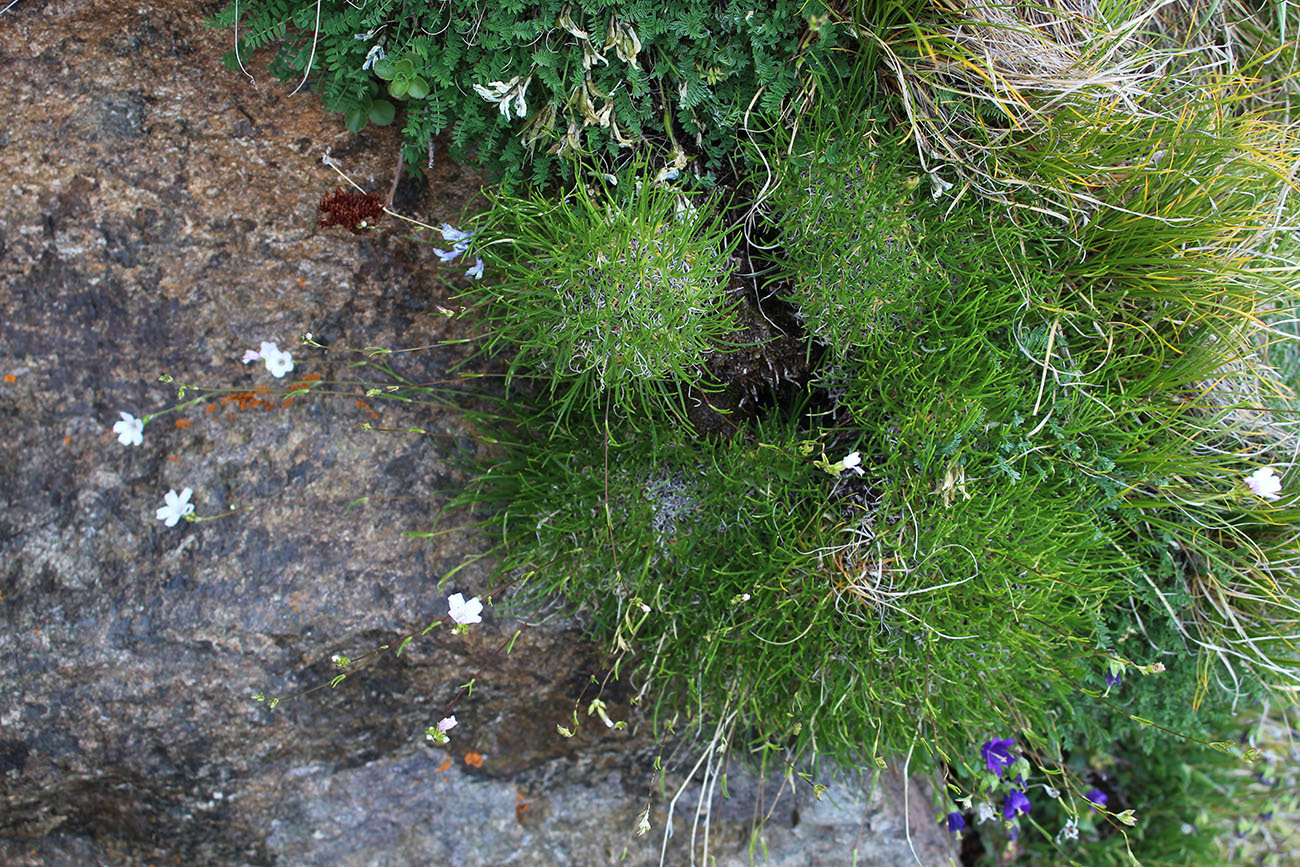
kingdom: Plantae
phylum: Tracheophyta
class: Magnoliopsida
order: Caryophyllales
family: Caryophyllaceae
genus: Gypsophila
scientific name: Gypsophila tenuifolia
